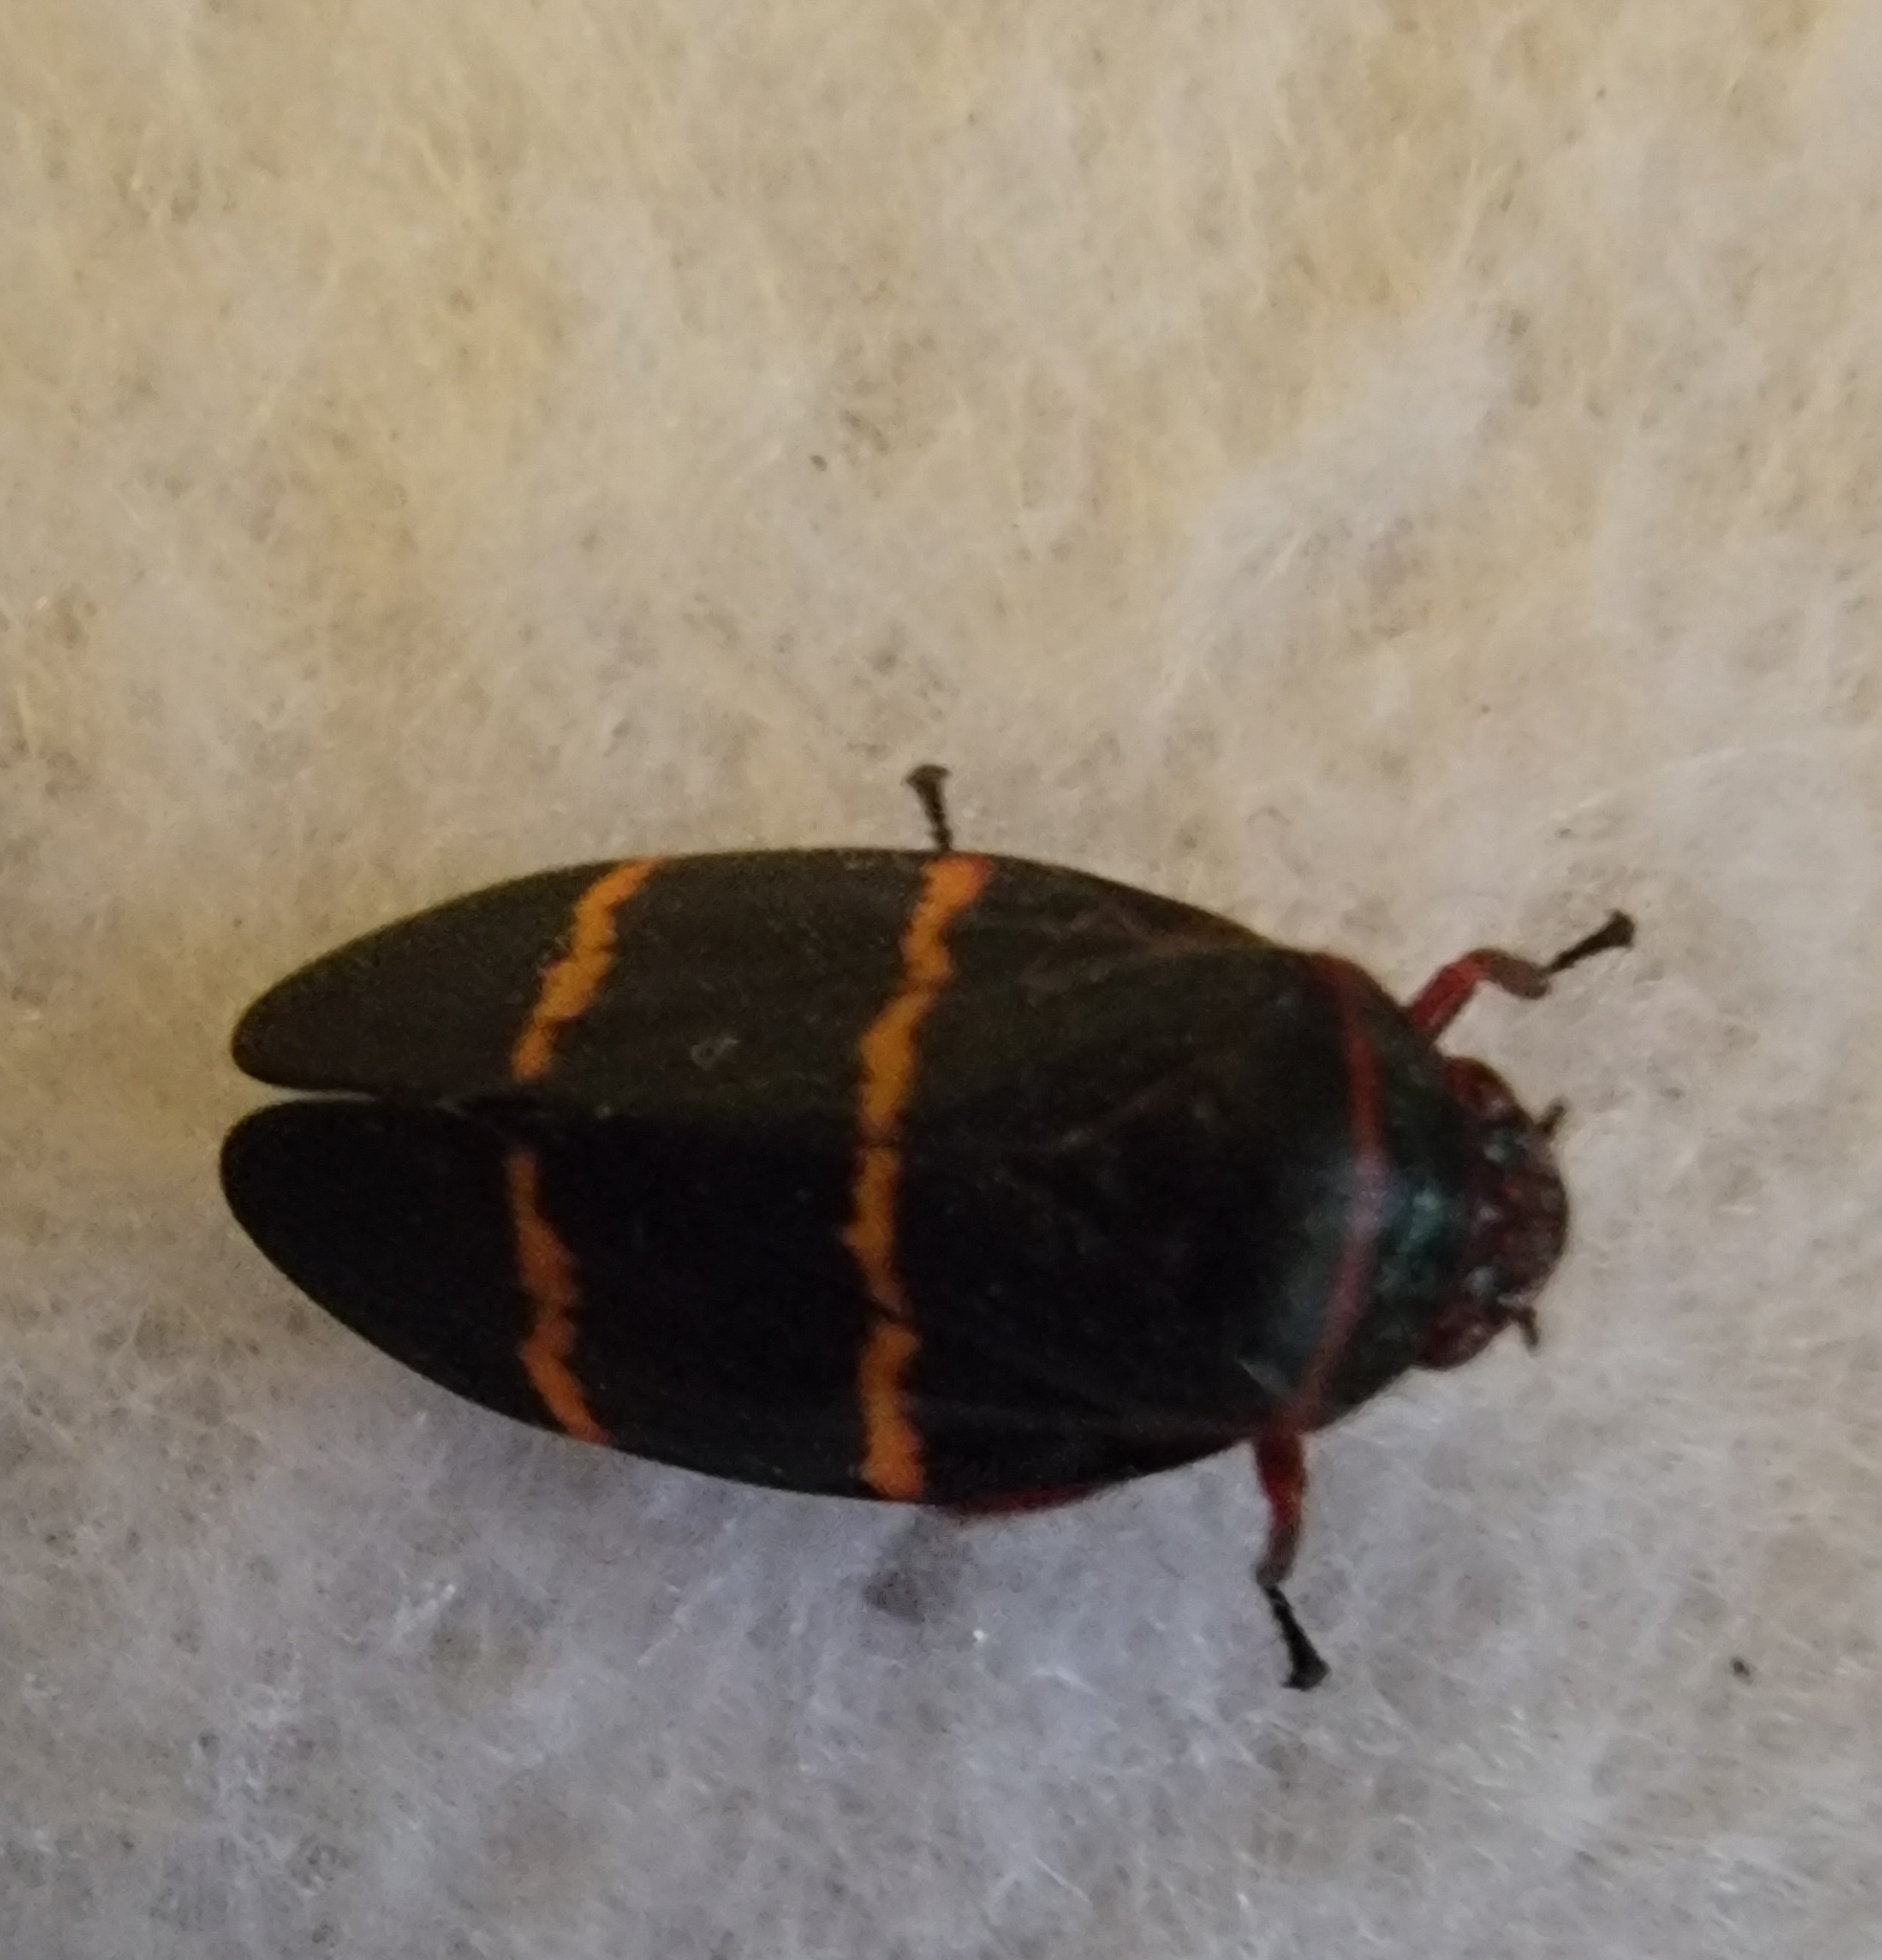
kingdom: Animalia
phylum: Arthropoda
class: Insecta
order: Hemiptera
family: Cercopidae
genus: Prosapia
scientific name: Prosapia bicincta
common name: Twolined spittlebug
